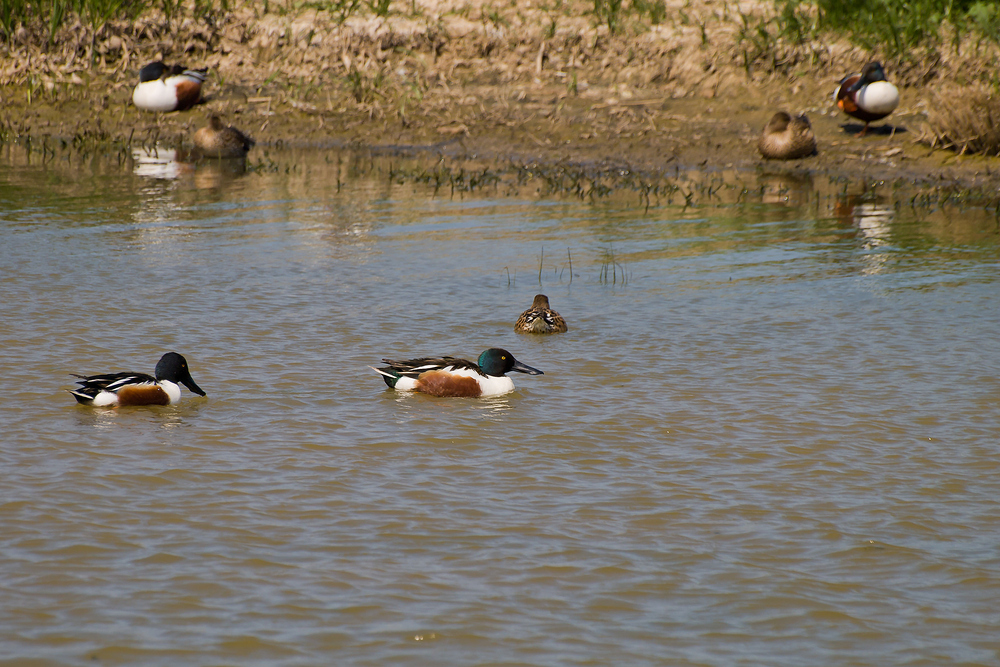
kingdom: Animalia
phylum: Chordata
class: Aves
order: Anseriformes
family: Anatidae
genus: Spatula
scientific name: Spatula clypeata
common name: Northern shoveler
